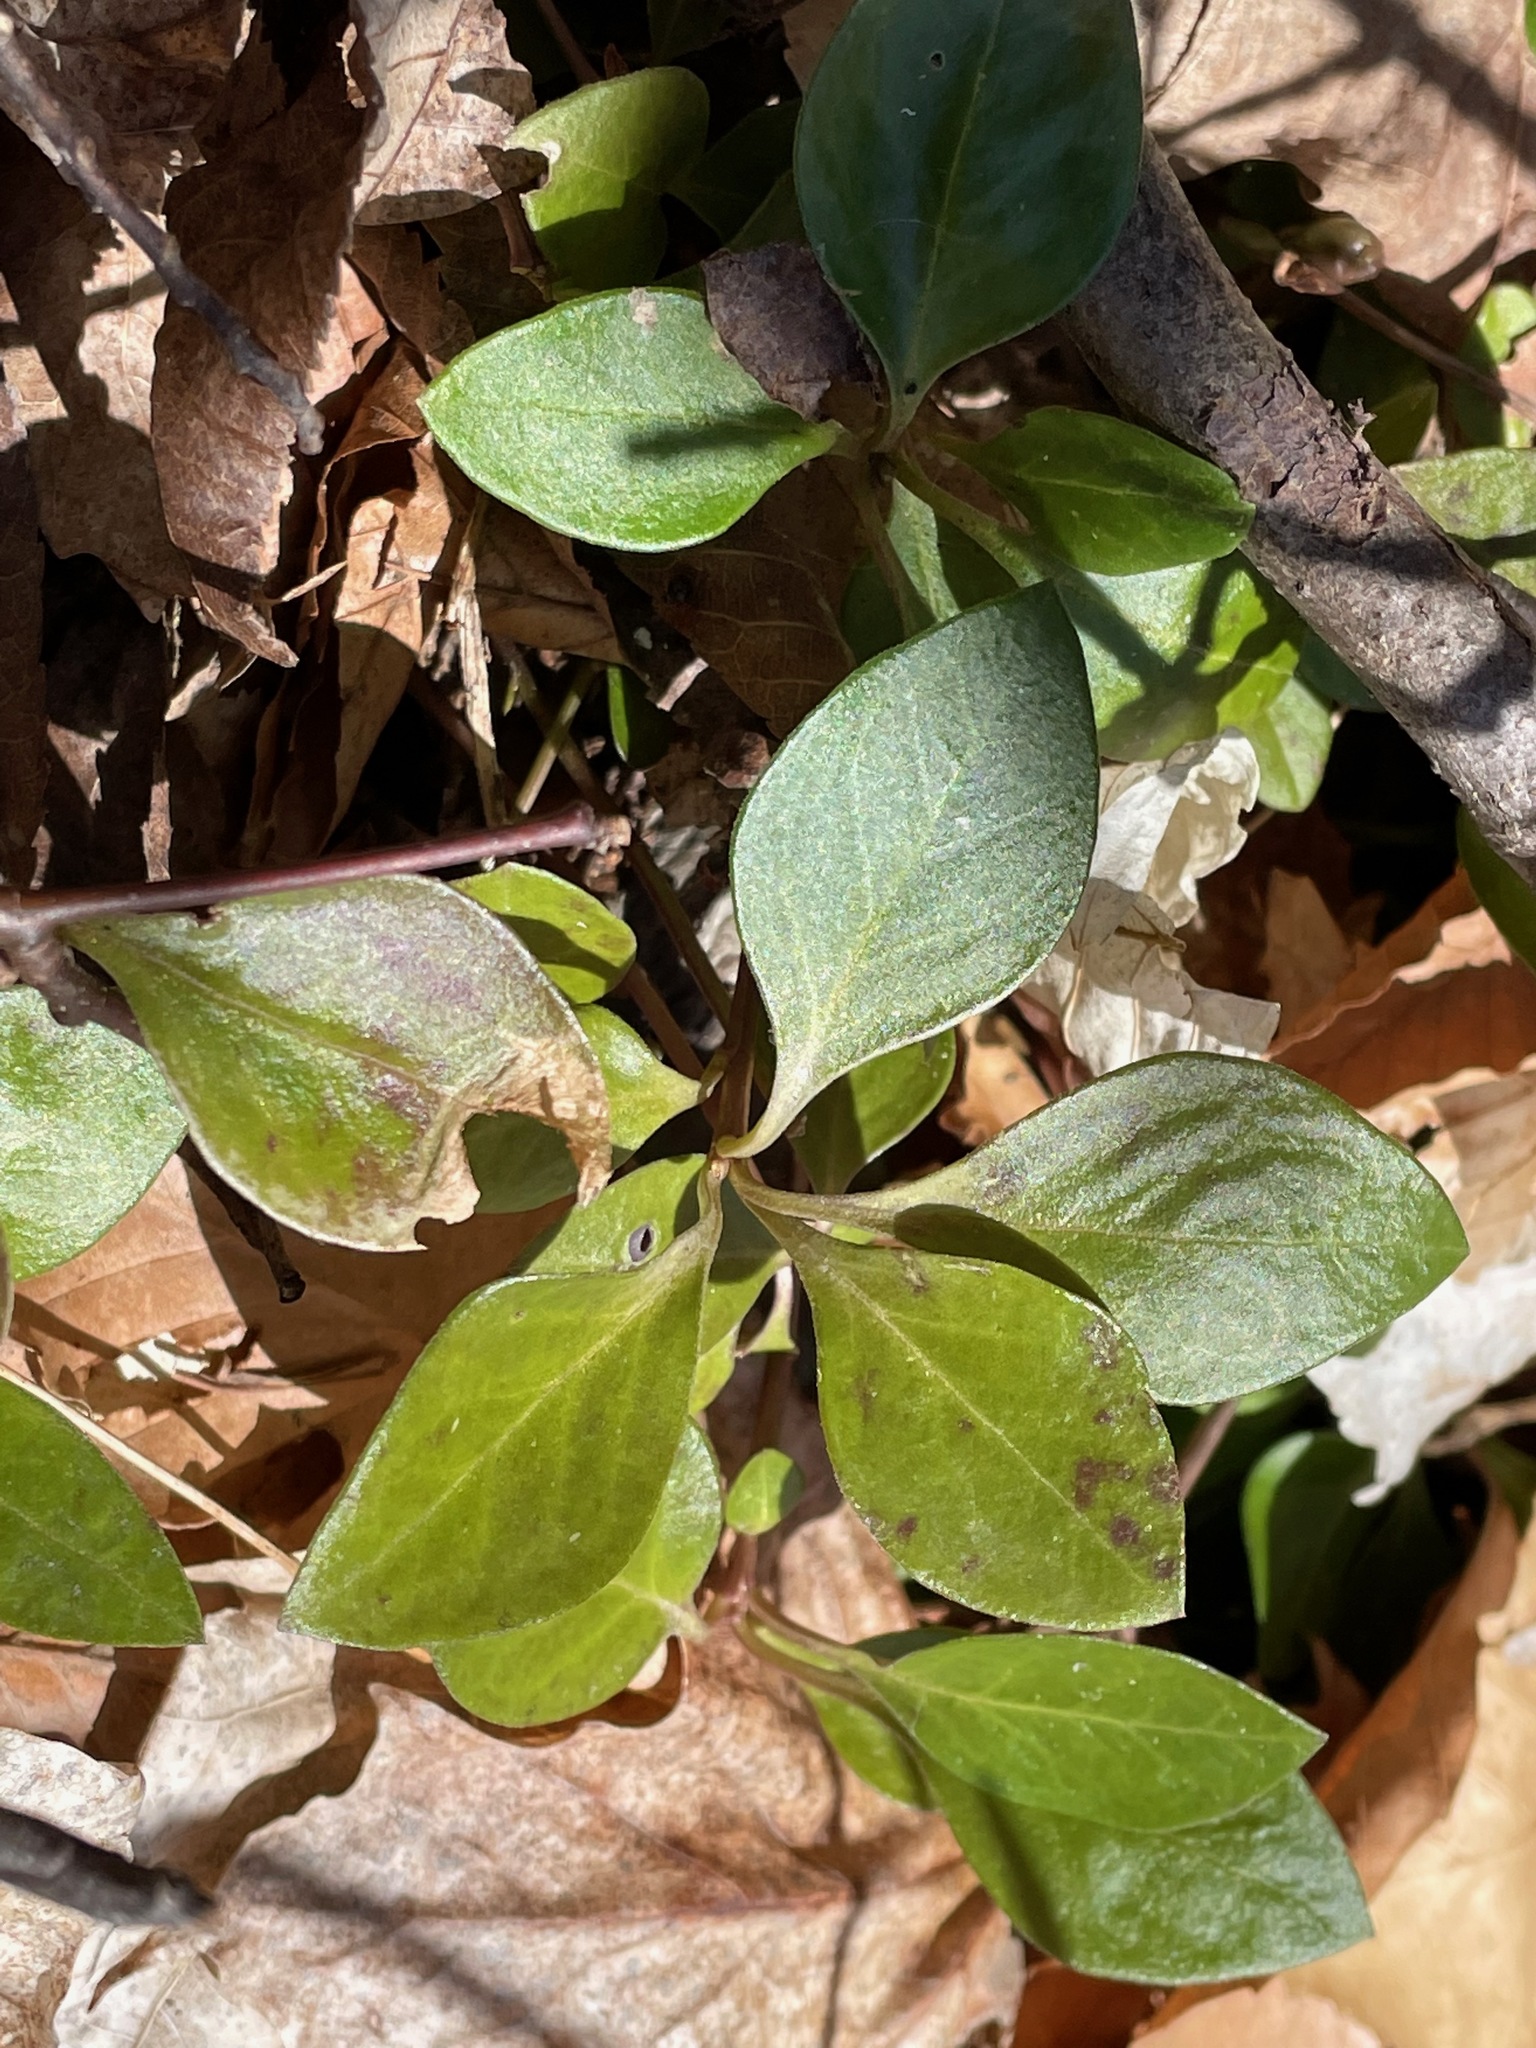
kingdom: Plantae
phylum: Tracheophyta
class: Magnoliopsida
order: Fabales
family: Polygalaceae
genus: Polygaloides
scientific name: Polygaloides paucifolia
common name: Bird-on-the-wing
